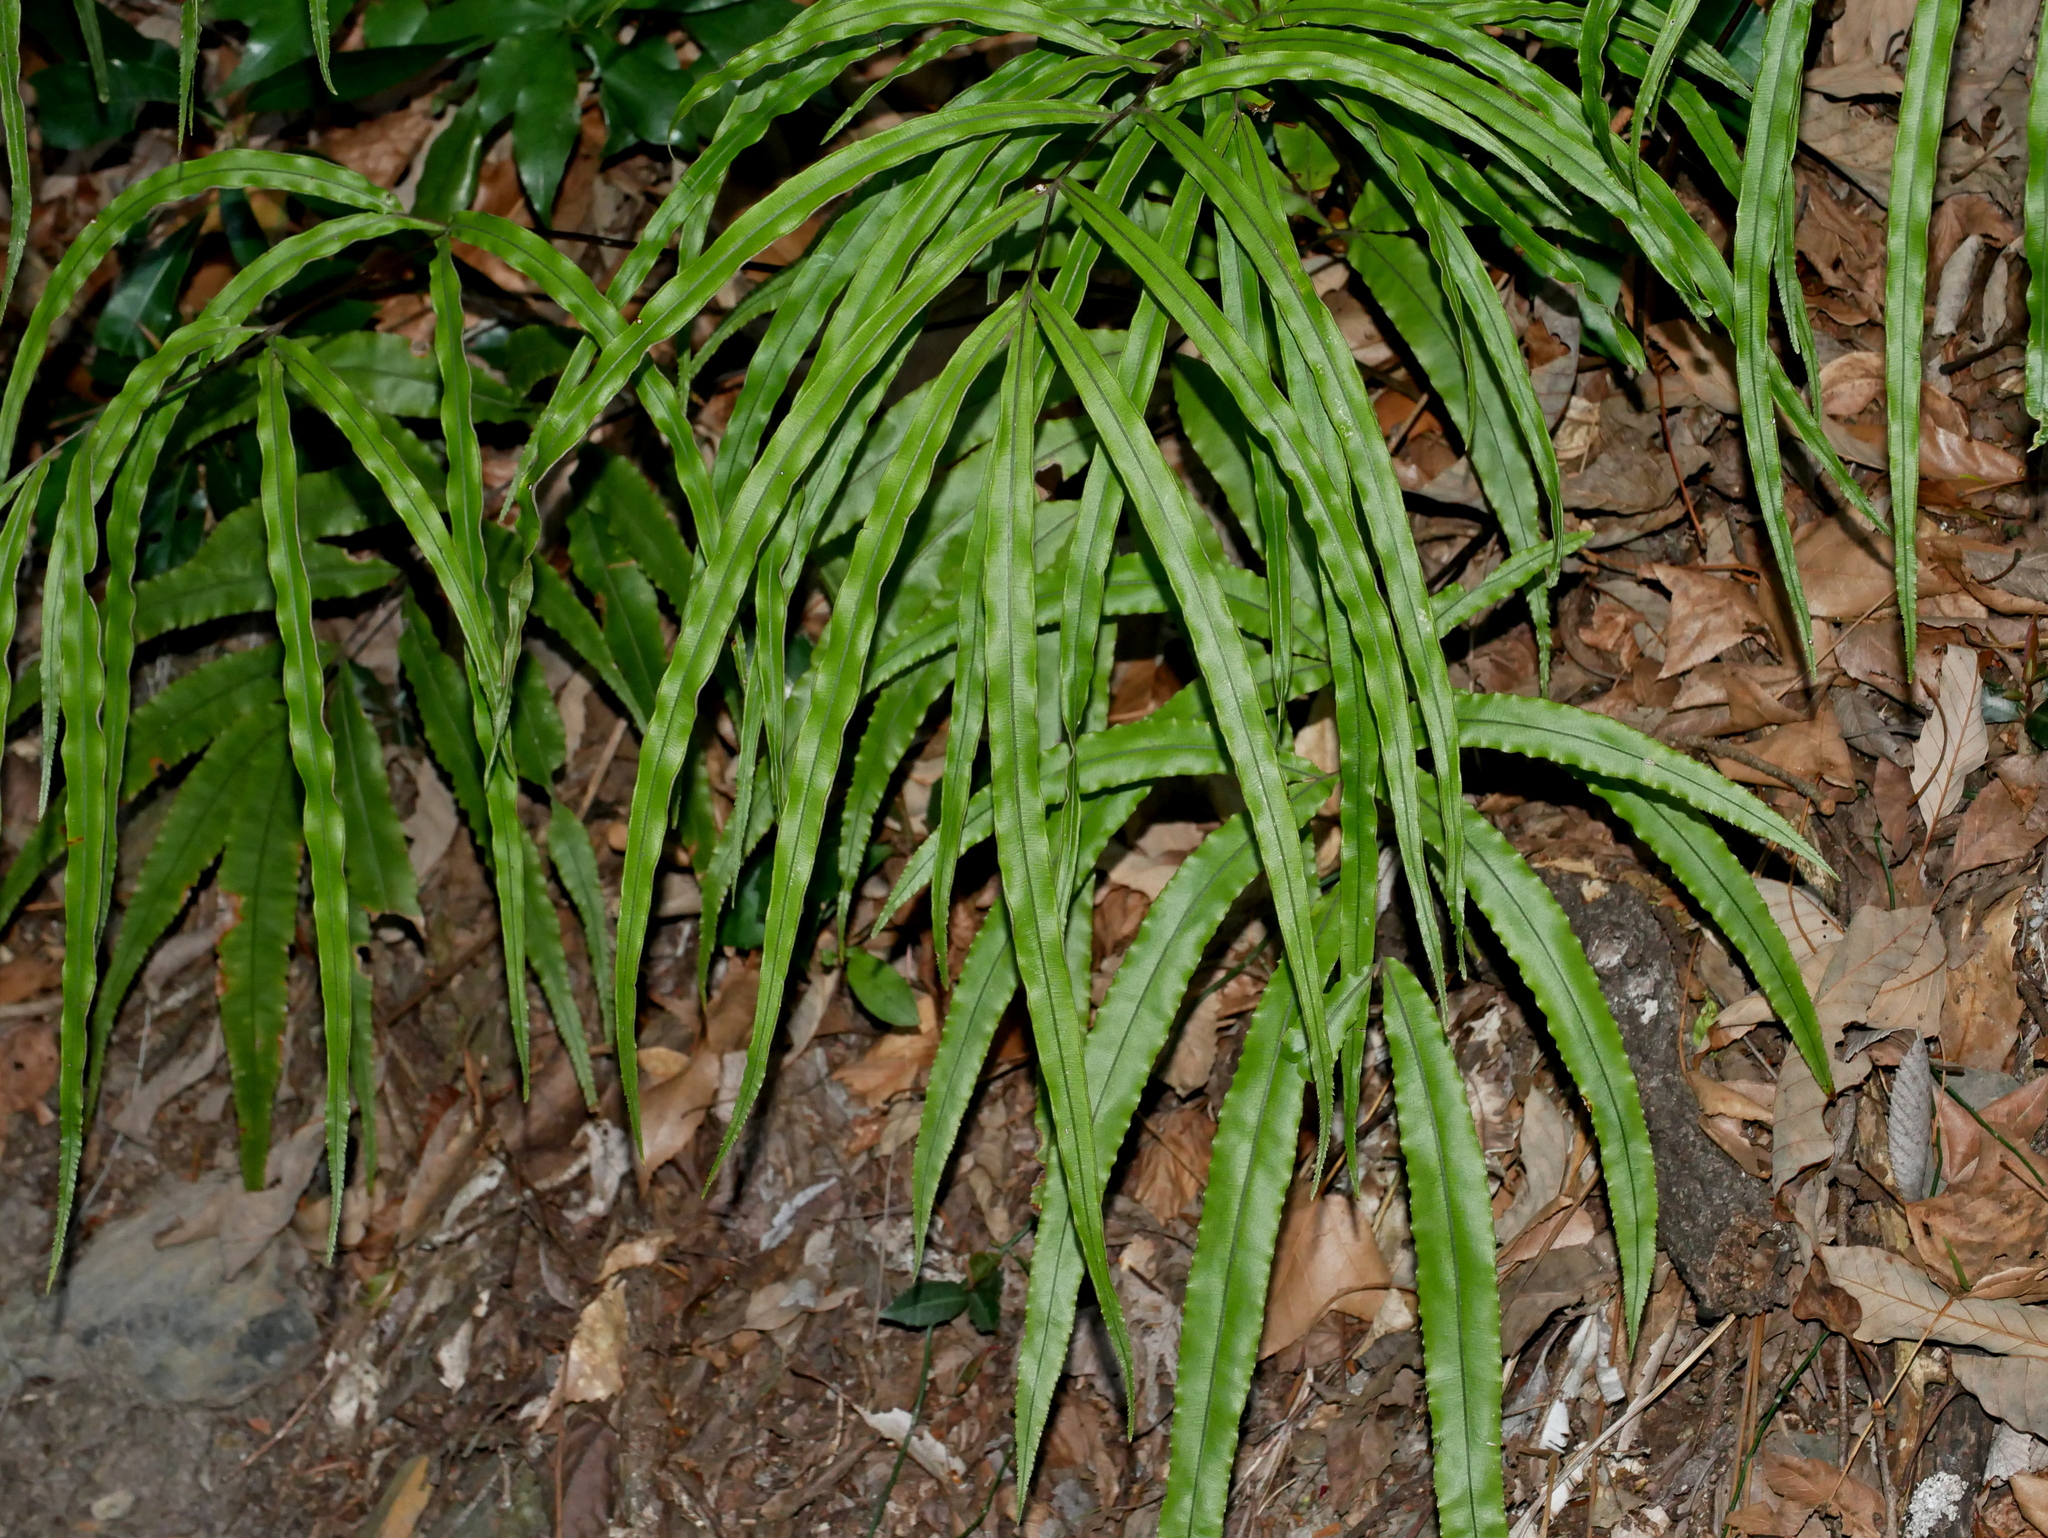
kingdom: Plantae
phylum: Tracheophyta
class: Polypodiopsida
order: Polypodiales
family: Pteridaceae
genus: Pteris
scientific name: Pteris cretica
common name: Ribbon fern
